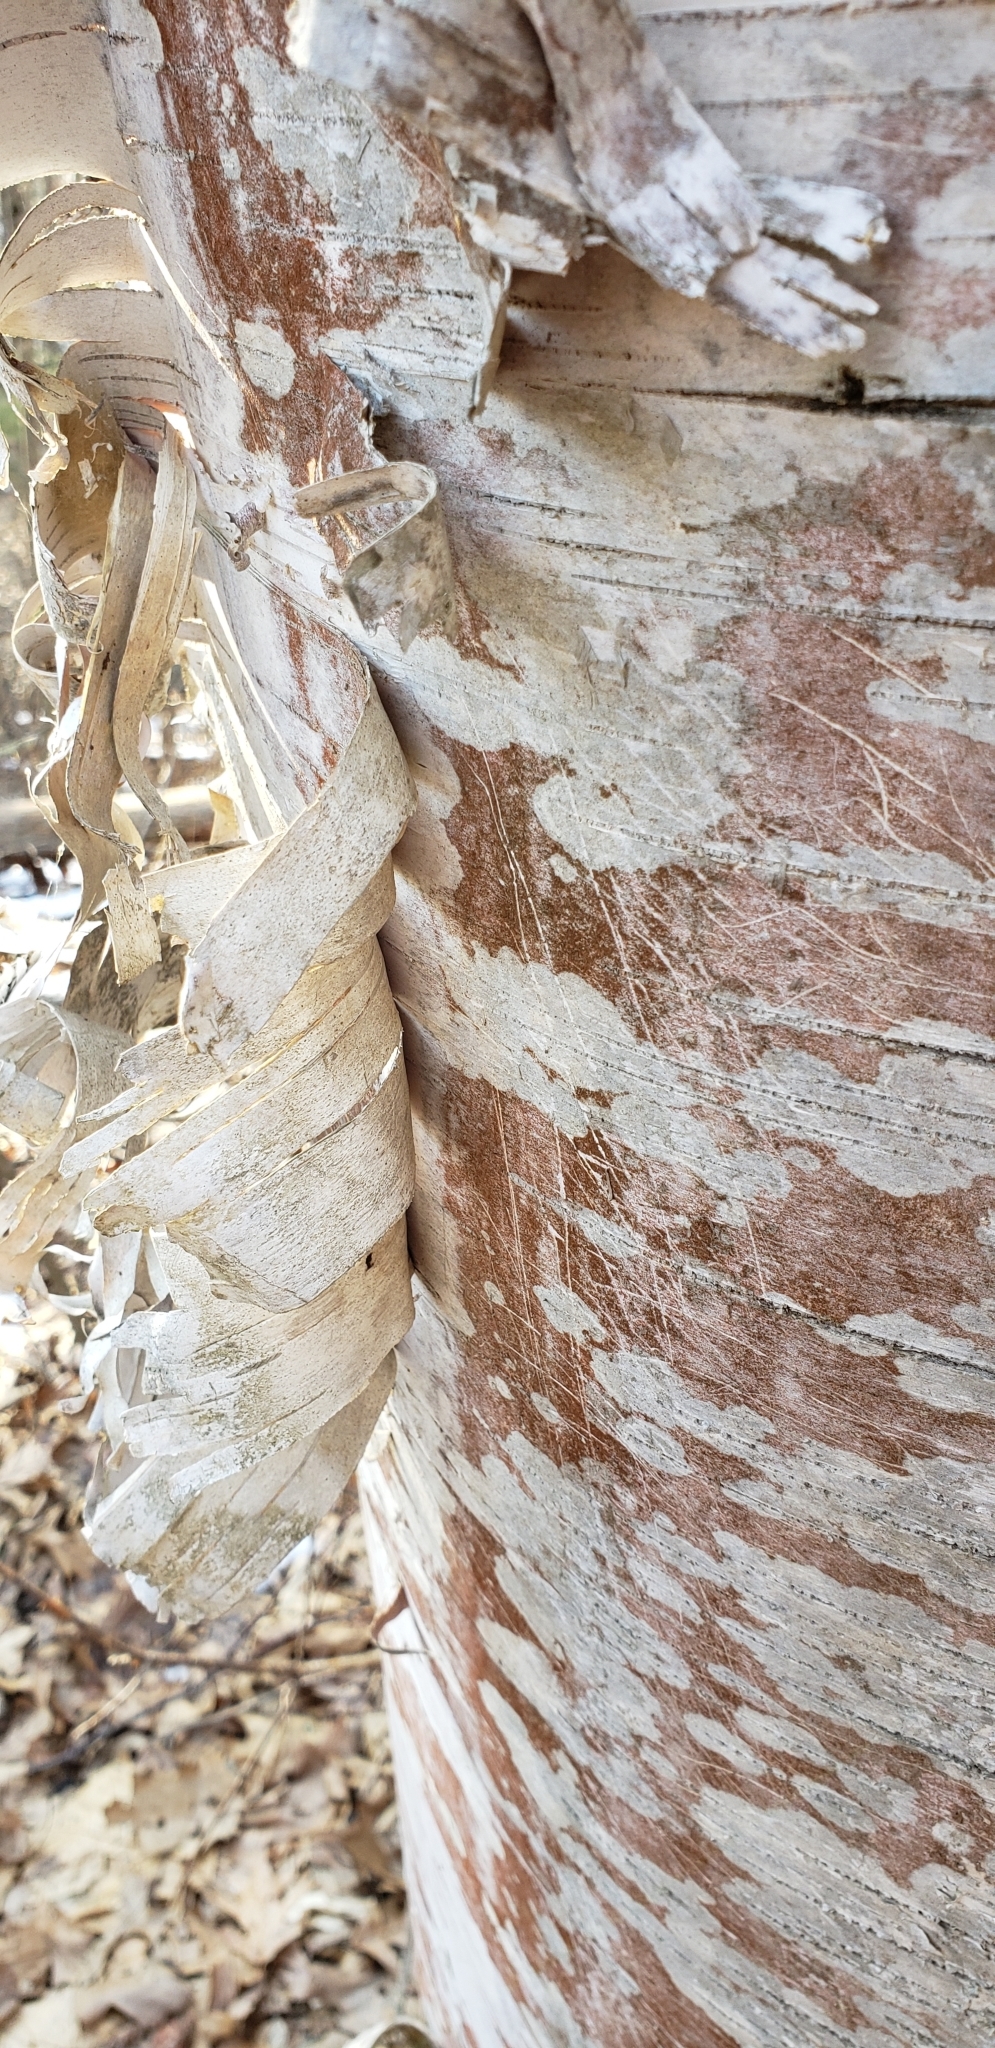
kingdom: Plantae
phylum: Tracheophyta
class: Magnoliopsida
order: Fagales
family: Betulaceae
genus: Betula
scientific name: Betula papyrifera
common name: Paper birch
